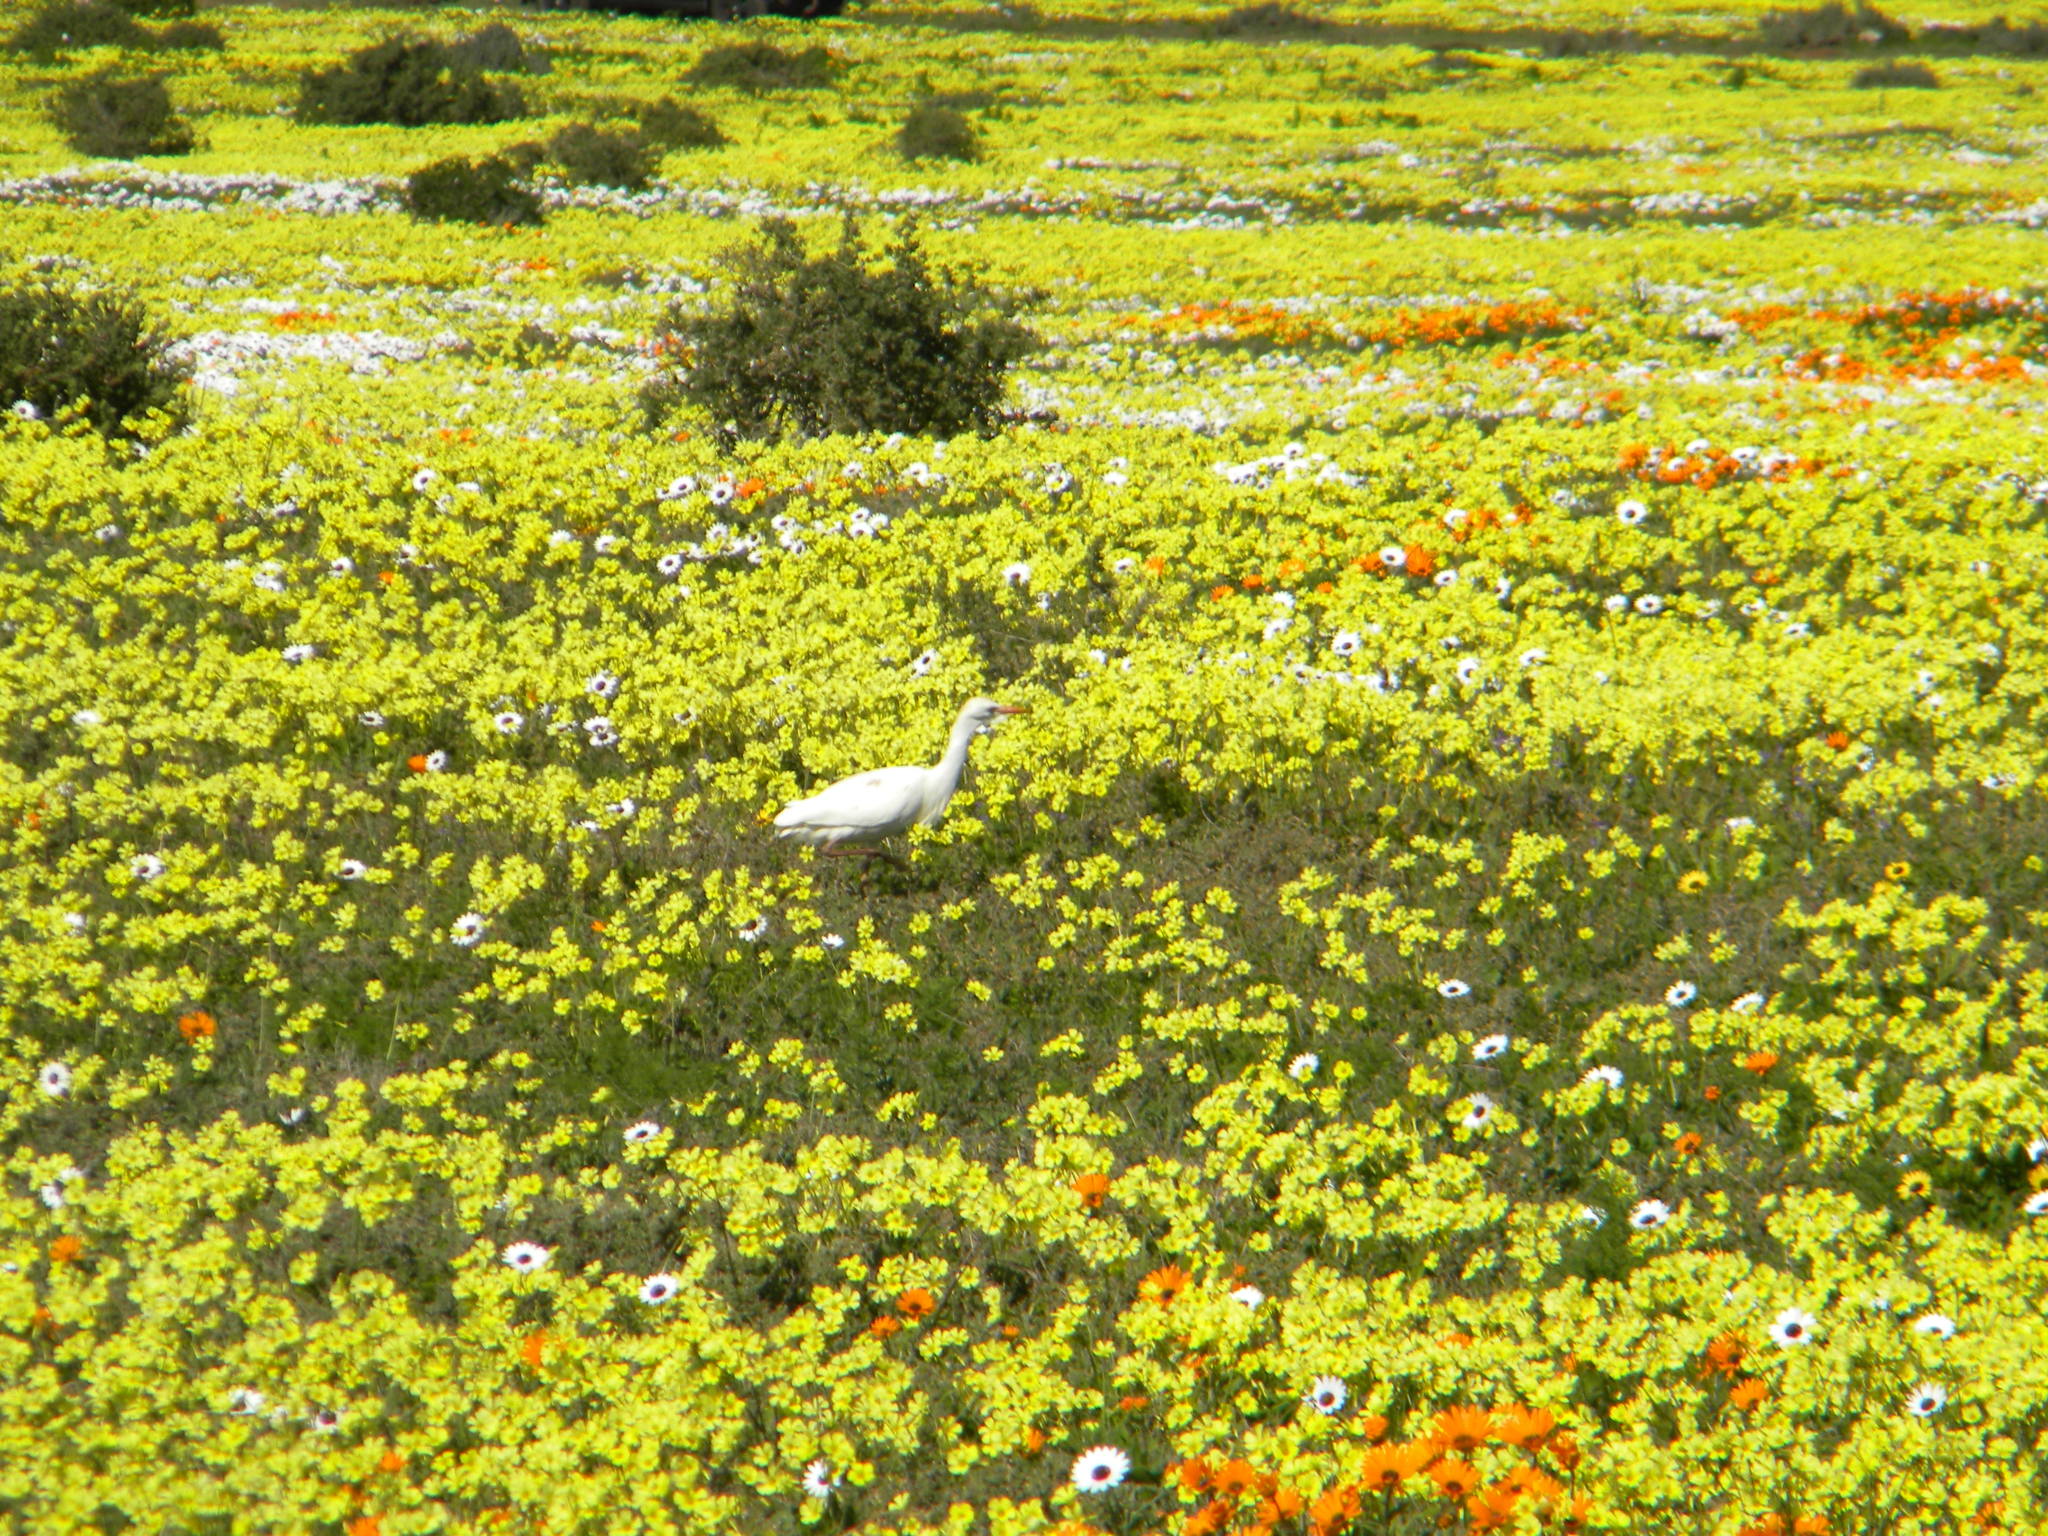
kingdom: Animalia
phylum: Chordata
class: Aves
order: Pelecaniformes
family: Ardeidae
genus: Bubulcus
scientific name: Bubulcus ibis
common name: Cattle egret
